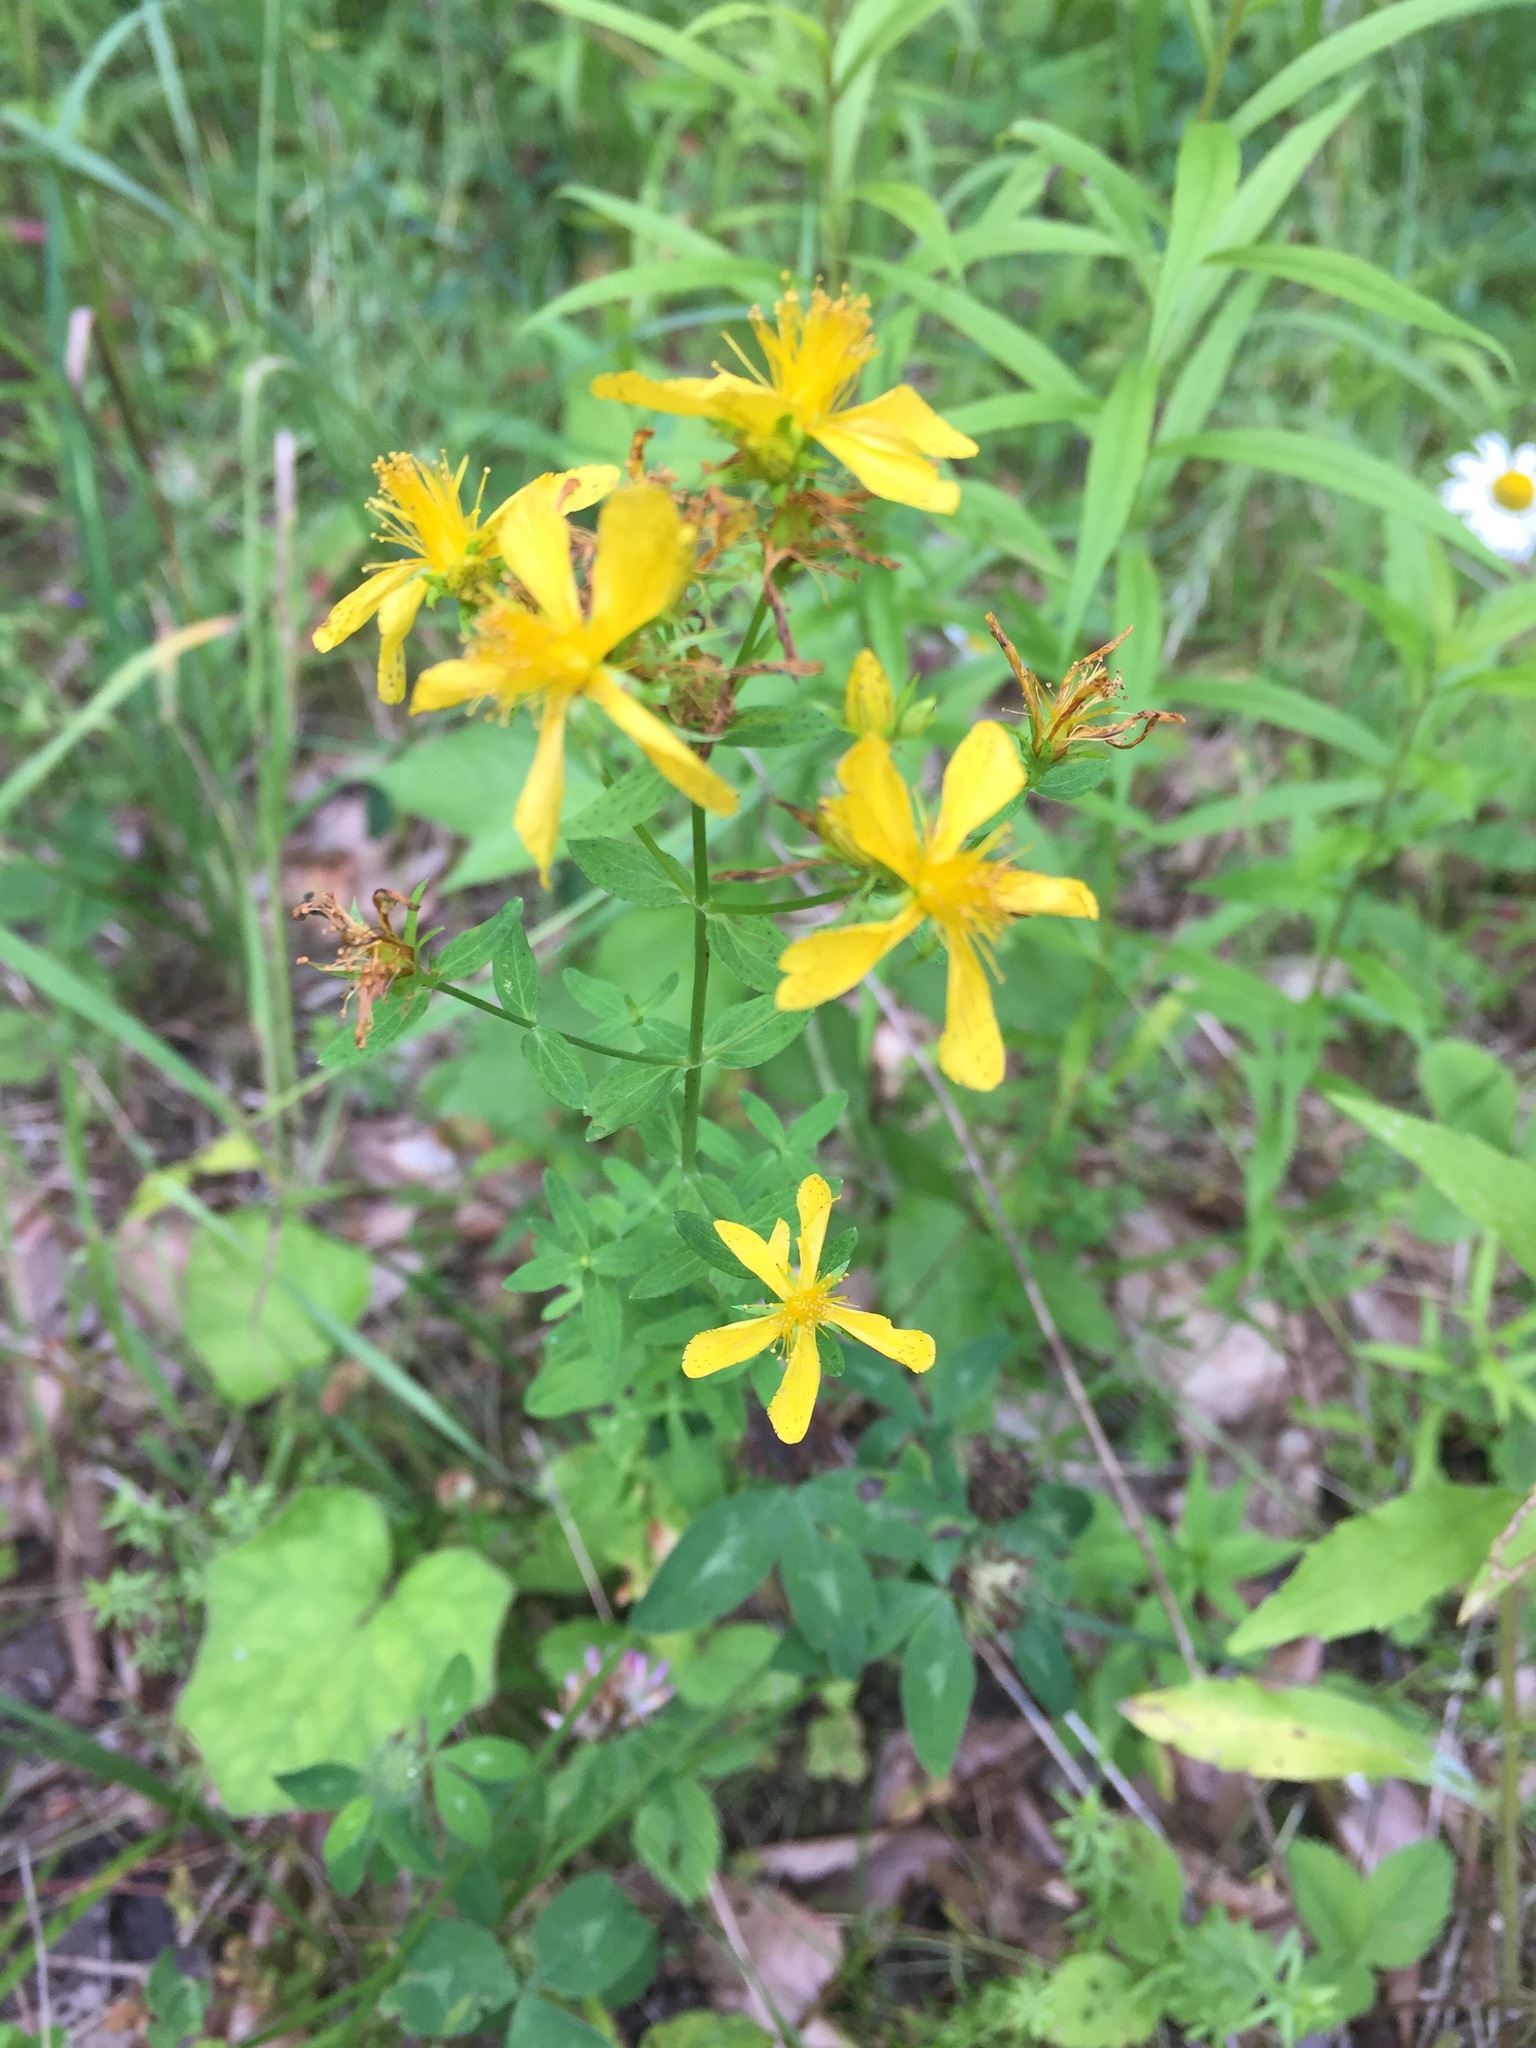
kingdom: Plantae
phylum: Tracheophyta
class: Magnoliopsida
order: Malpighiales
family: Hypericaceae
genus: Hypericum
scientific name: Hypericum perforatum
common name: Common st. johnswort
